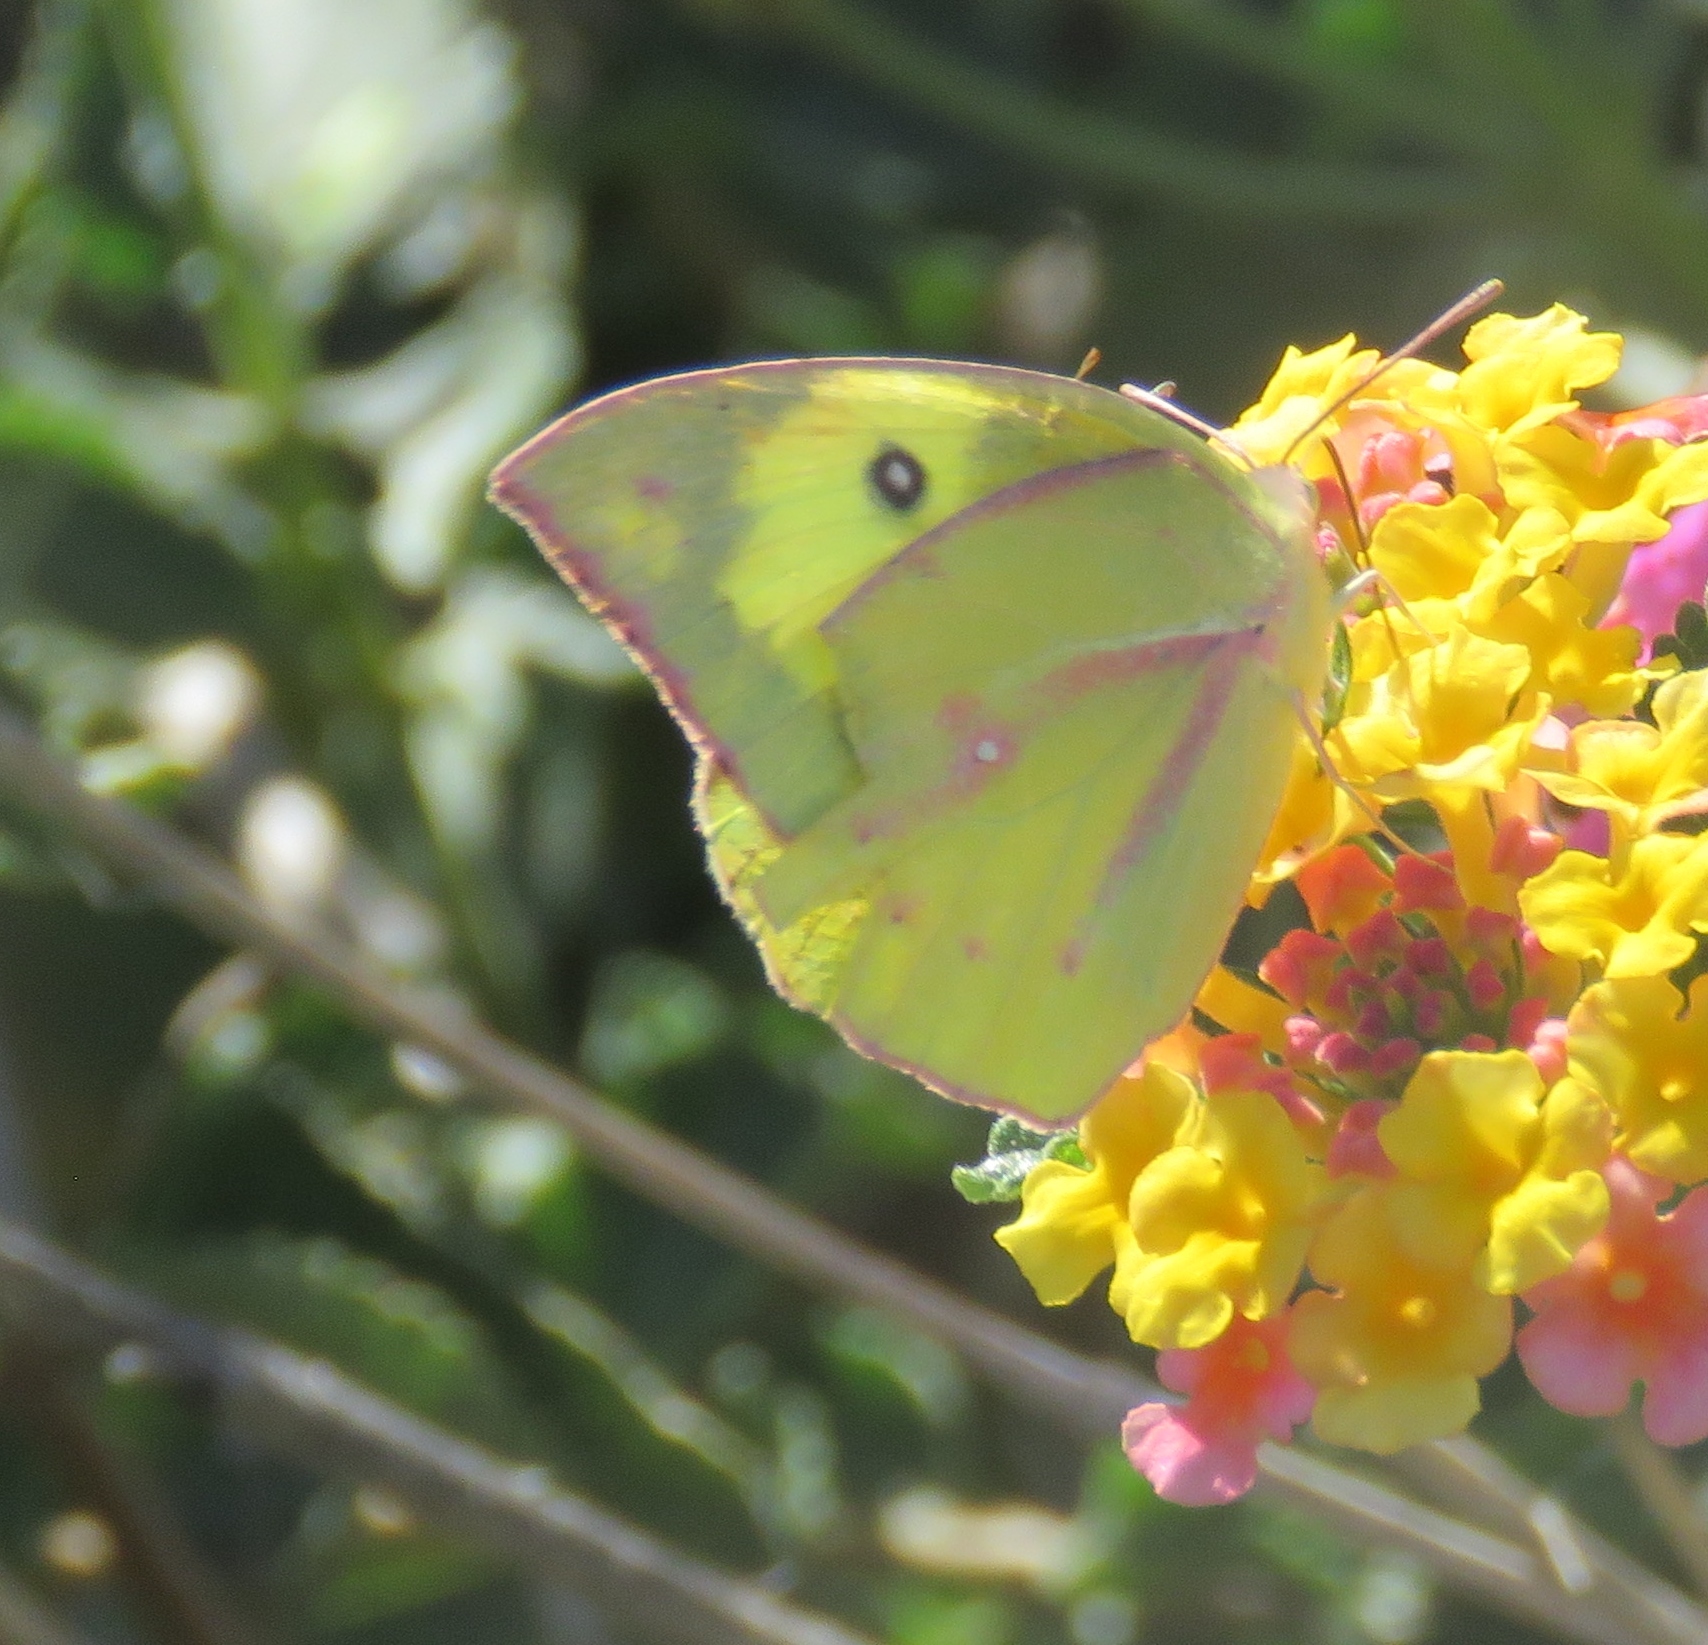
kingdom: Animalia
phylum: Arthropoda
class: Insecta
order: Lepidoptera
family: Pieridae
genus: Zerene
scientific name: Zerene cesonia
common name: Southern dogface
